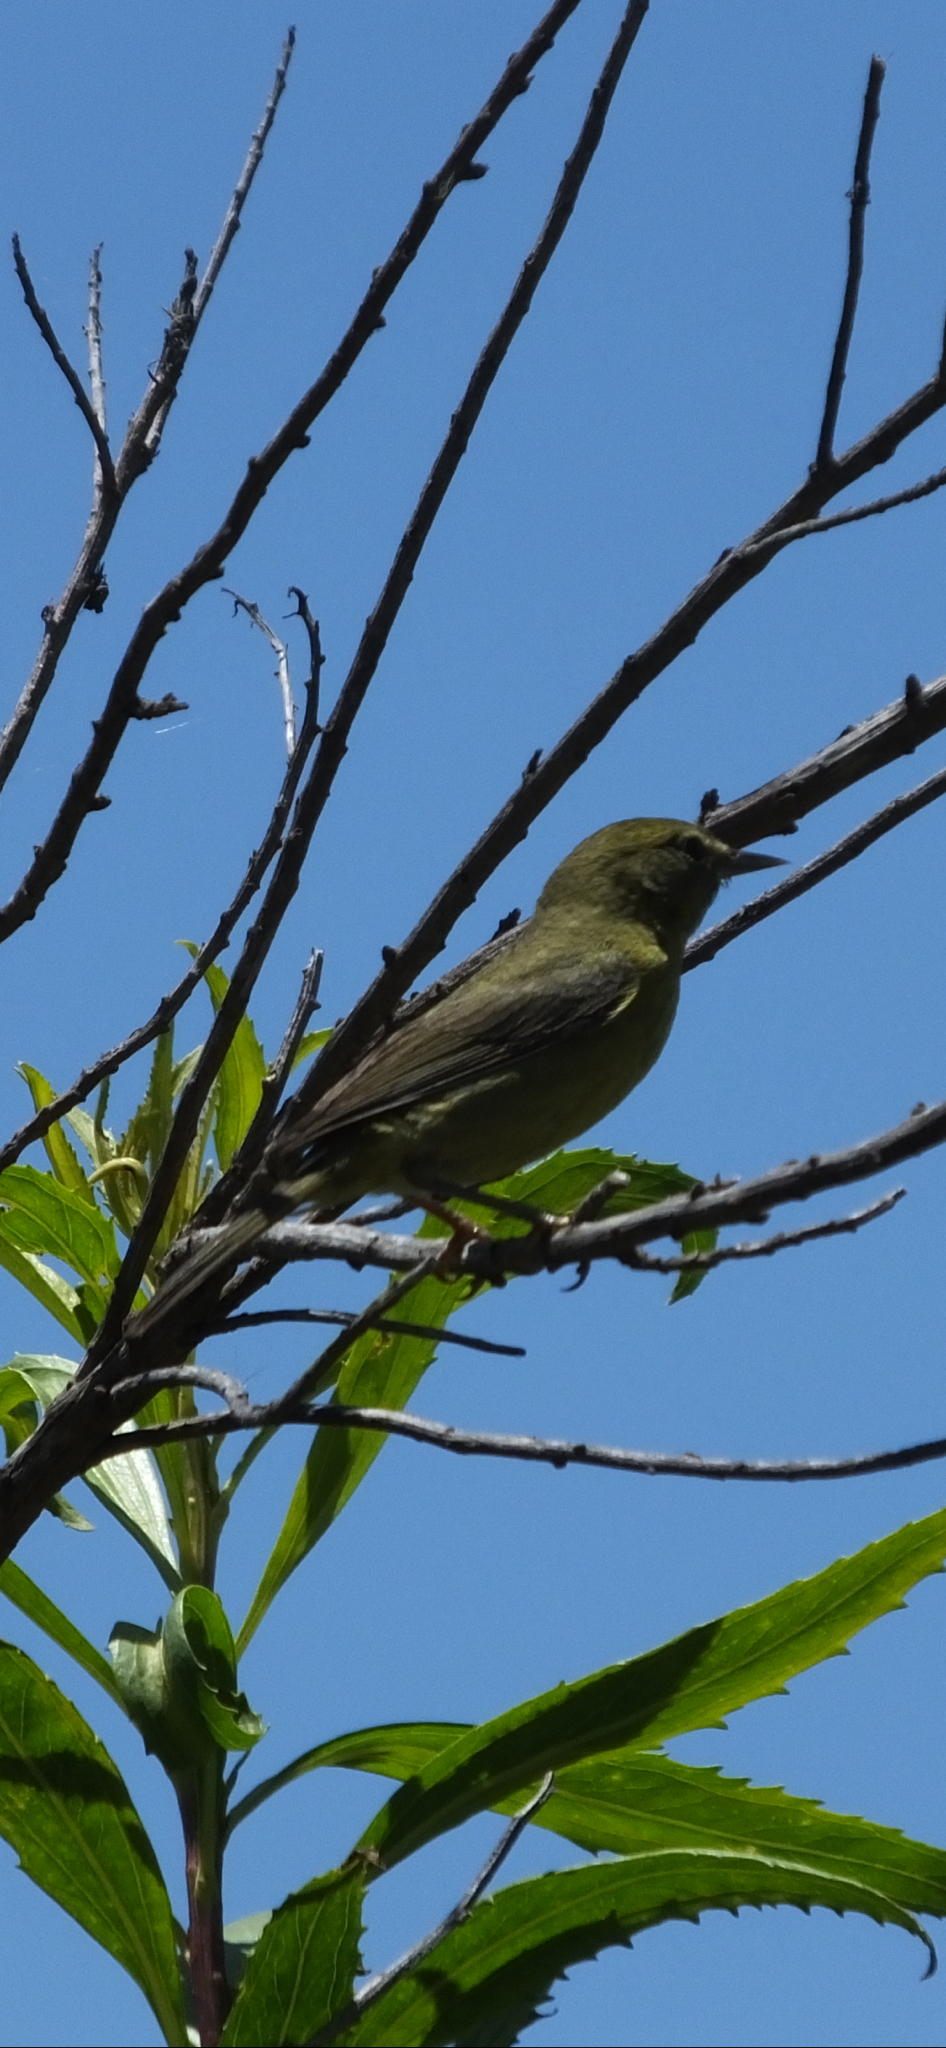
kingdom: Animalia
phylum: Chordata
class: Aves
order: Passeriformes
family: Parulidae
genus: Leiothlypis
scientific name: Leiothlypis celata
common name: Orange-crowned warbler
